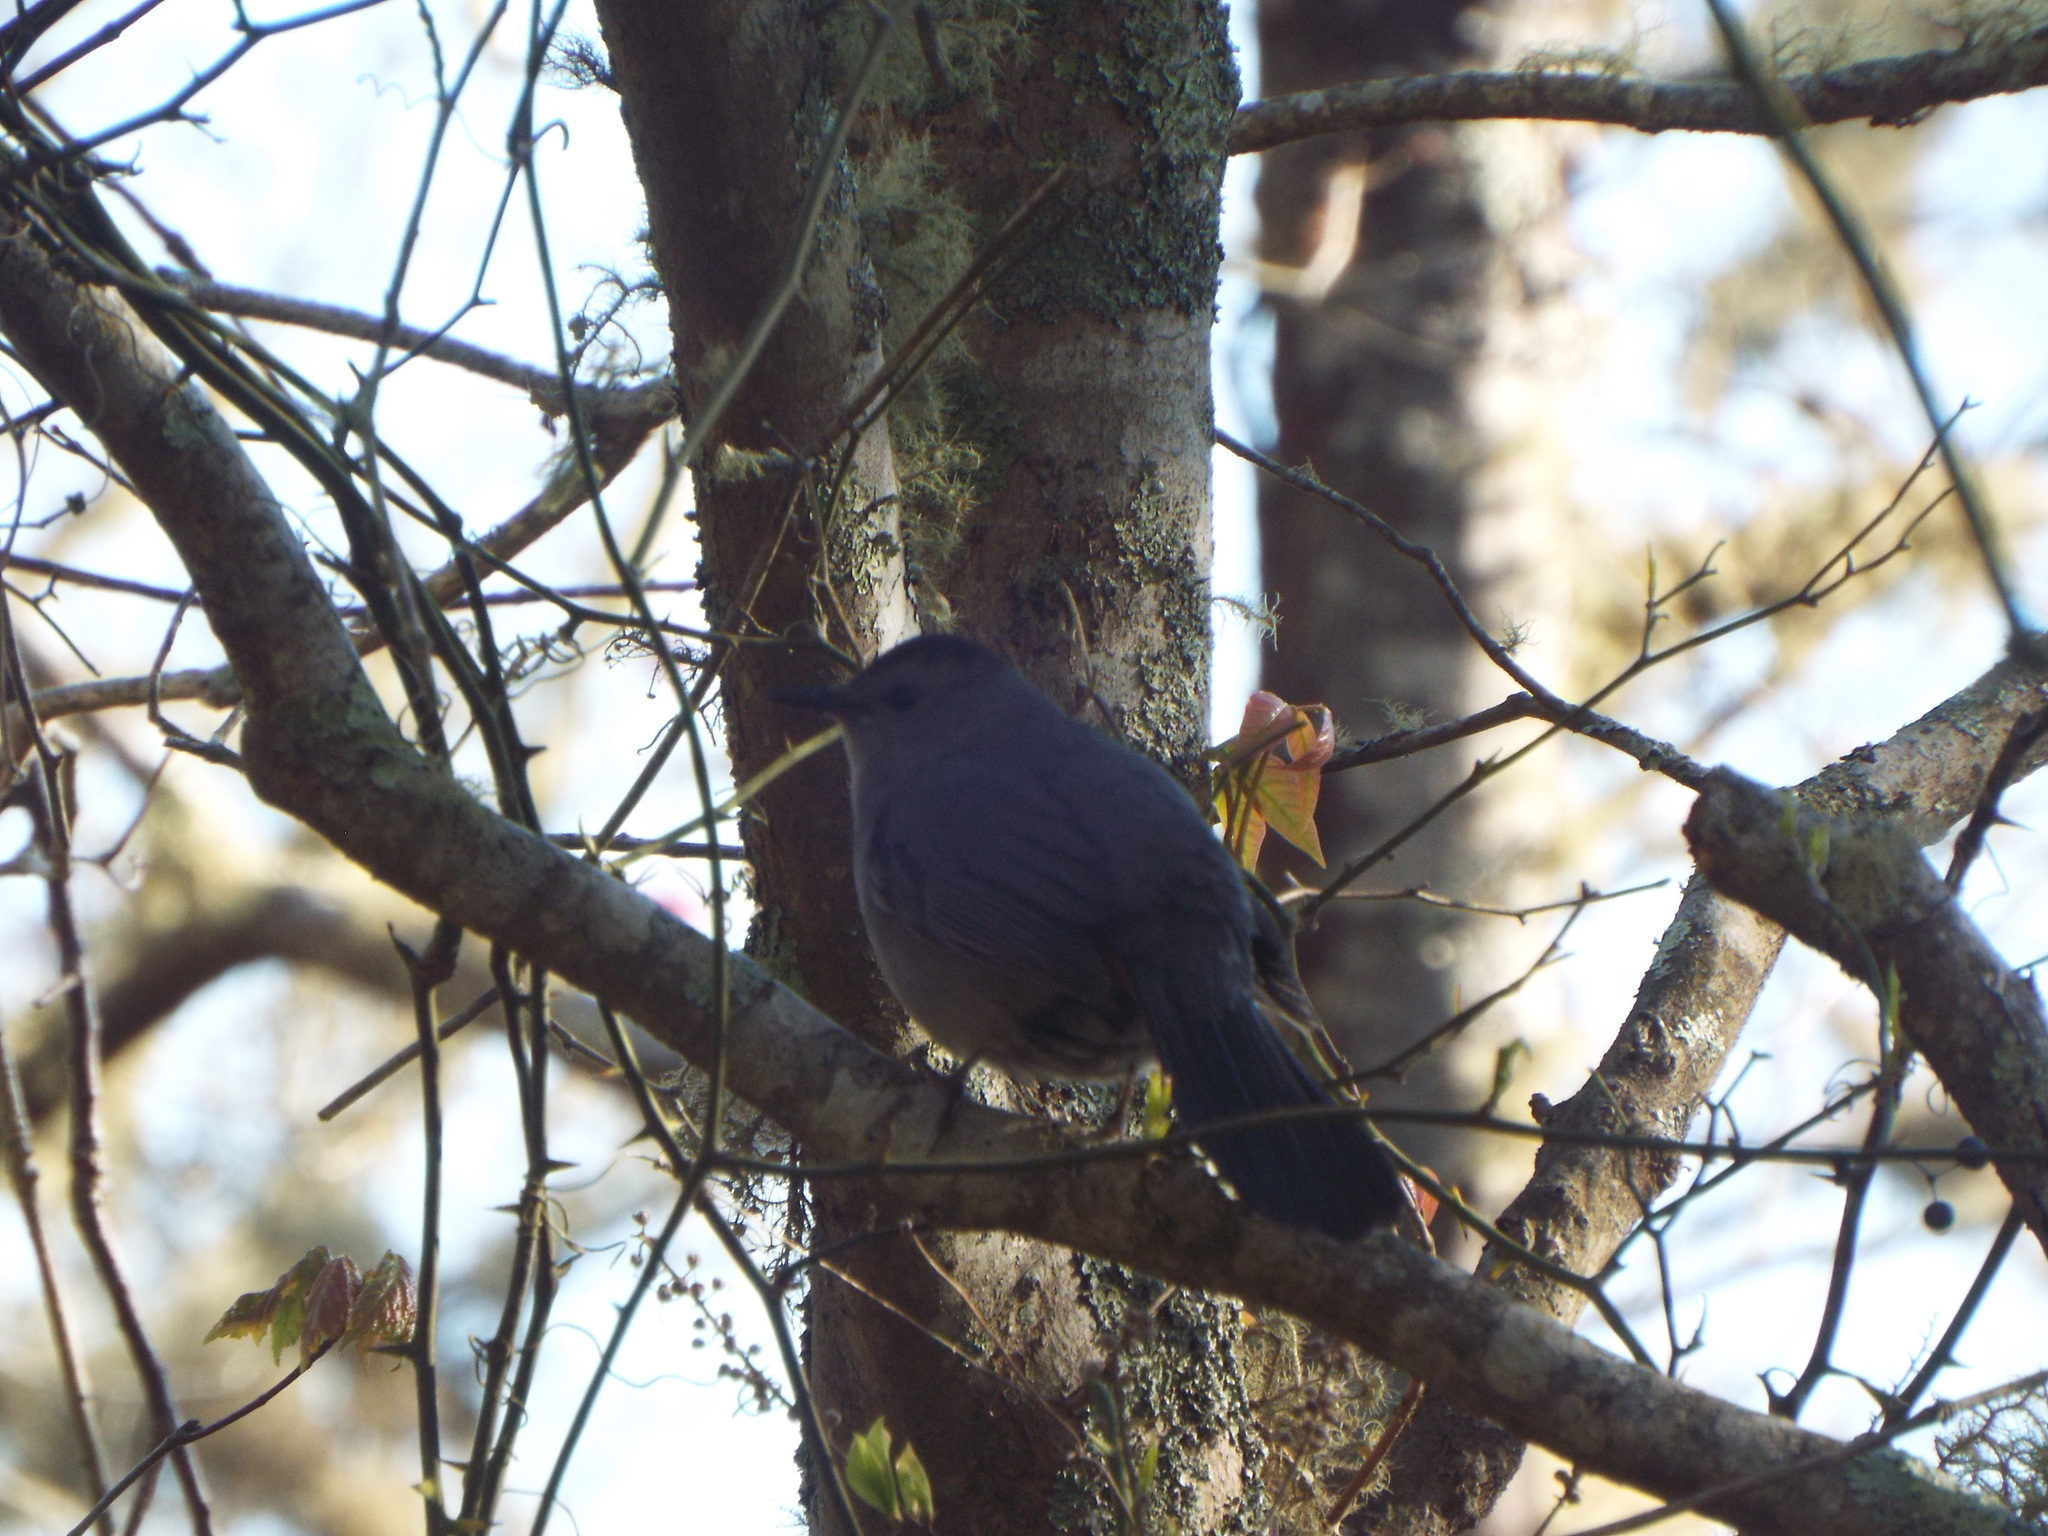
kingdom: Animalia
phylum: Chordata
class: Aves
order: Passeriformes
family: Mimidae
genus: Dumetella
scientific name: Dumetella carolinensis
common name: Gray catbird
